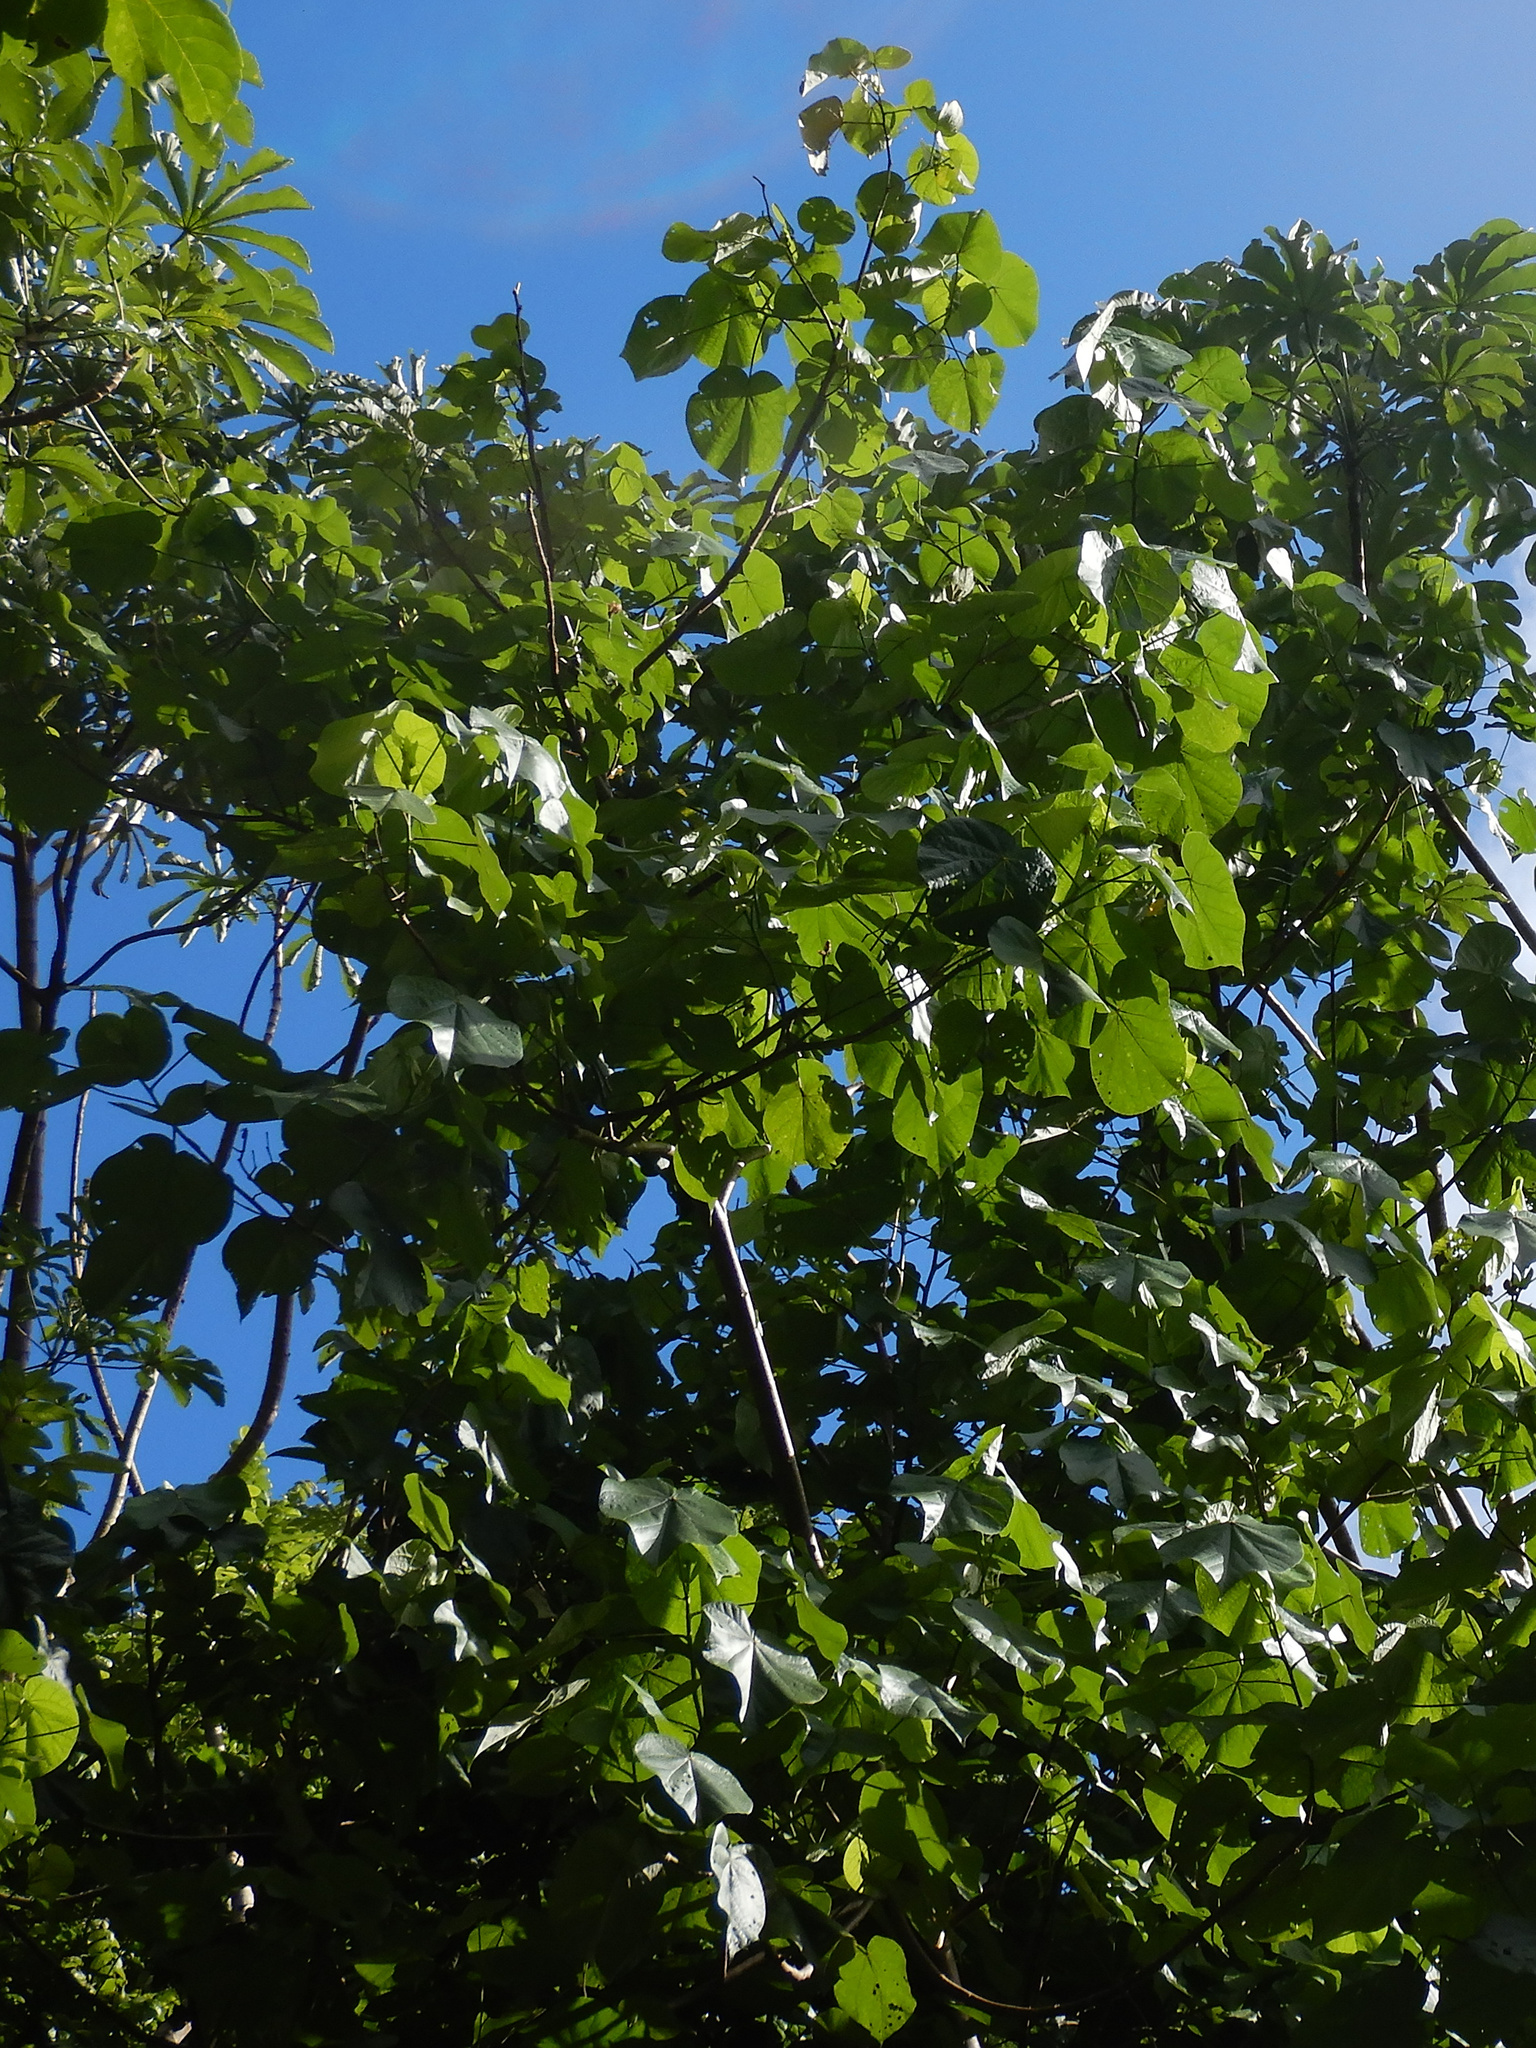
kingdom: Plantae
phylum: Tracheophyta
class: Magnoliopsida
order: Malvales
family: Malvaceae
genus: Talipariti
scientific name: Talipariti tiliaceum
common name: Sea hibiscus
